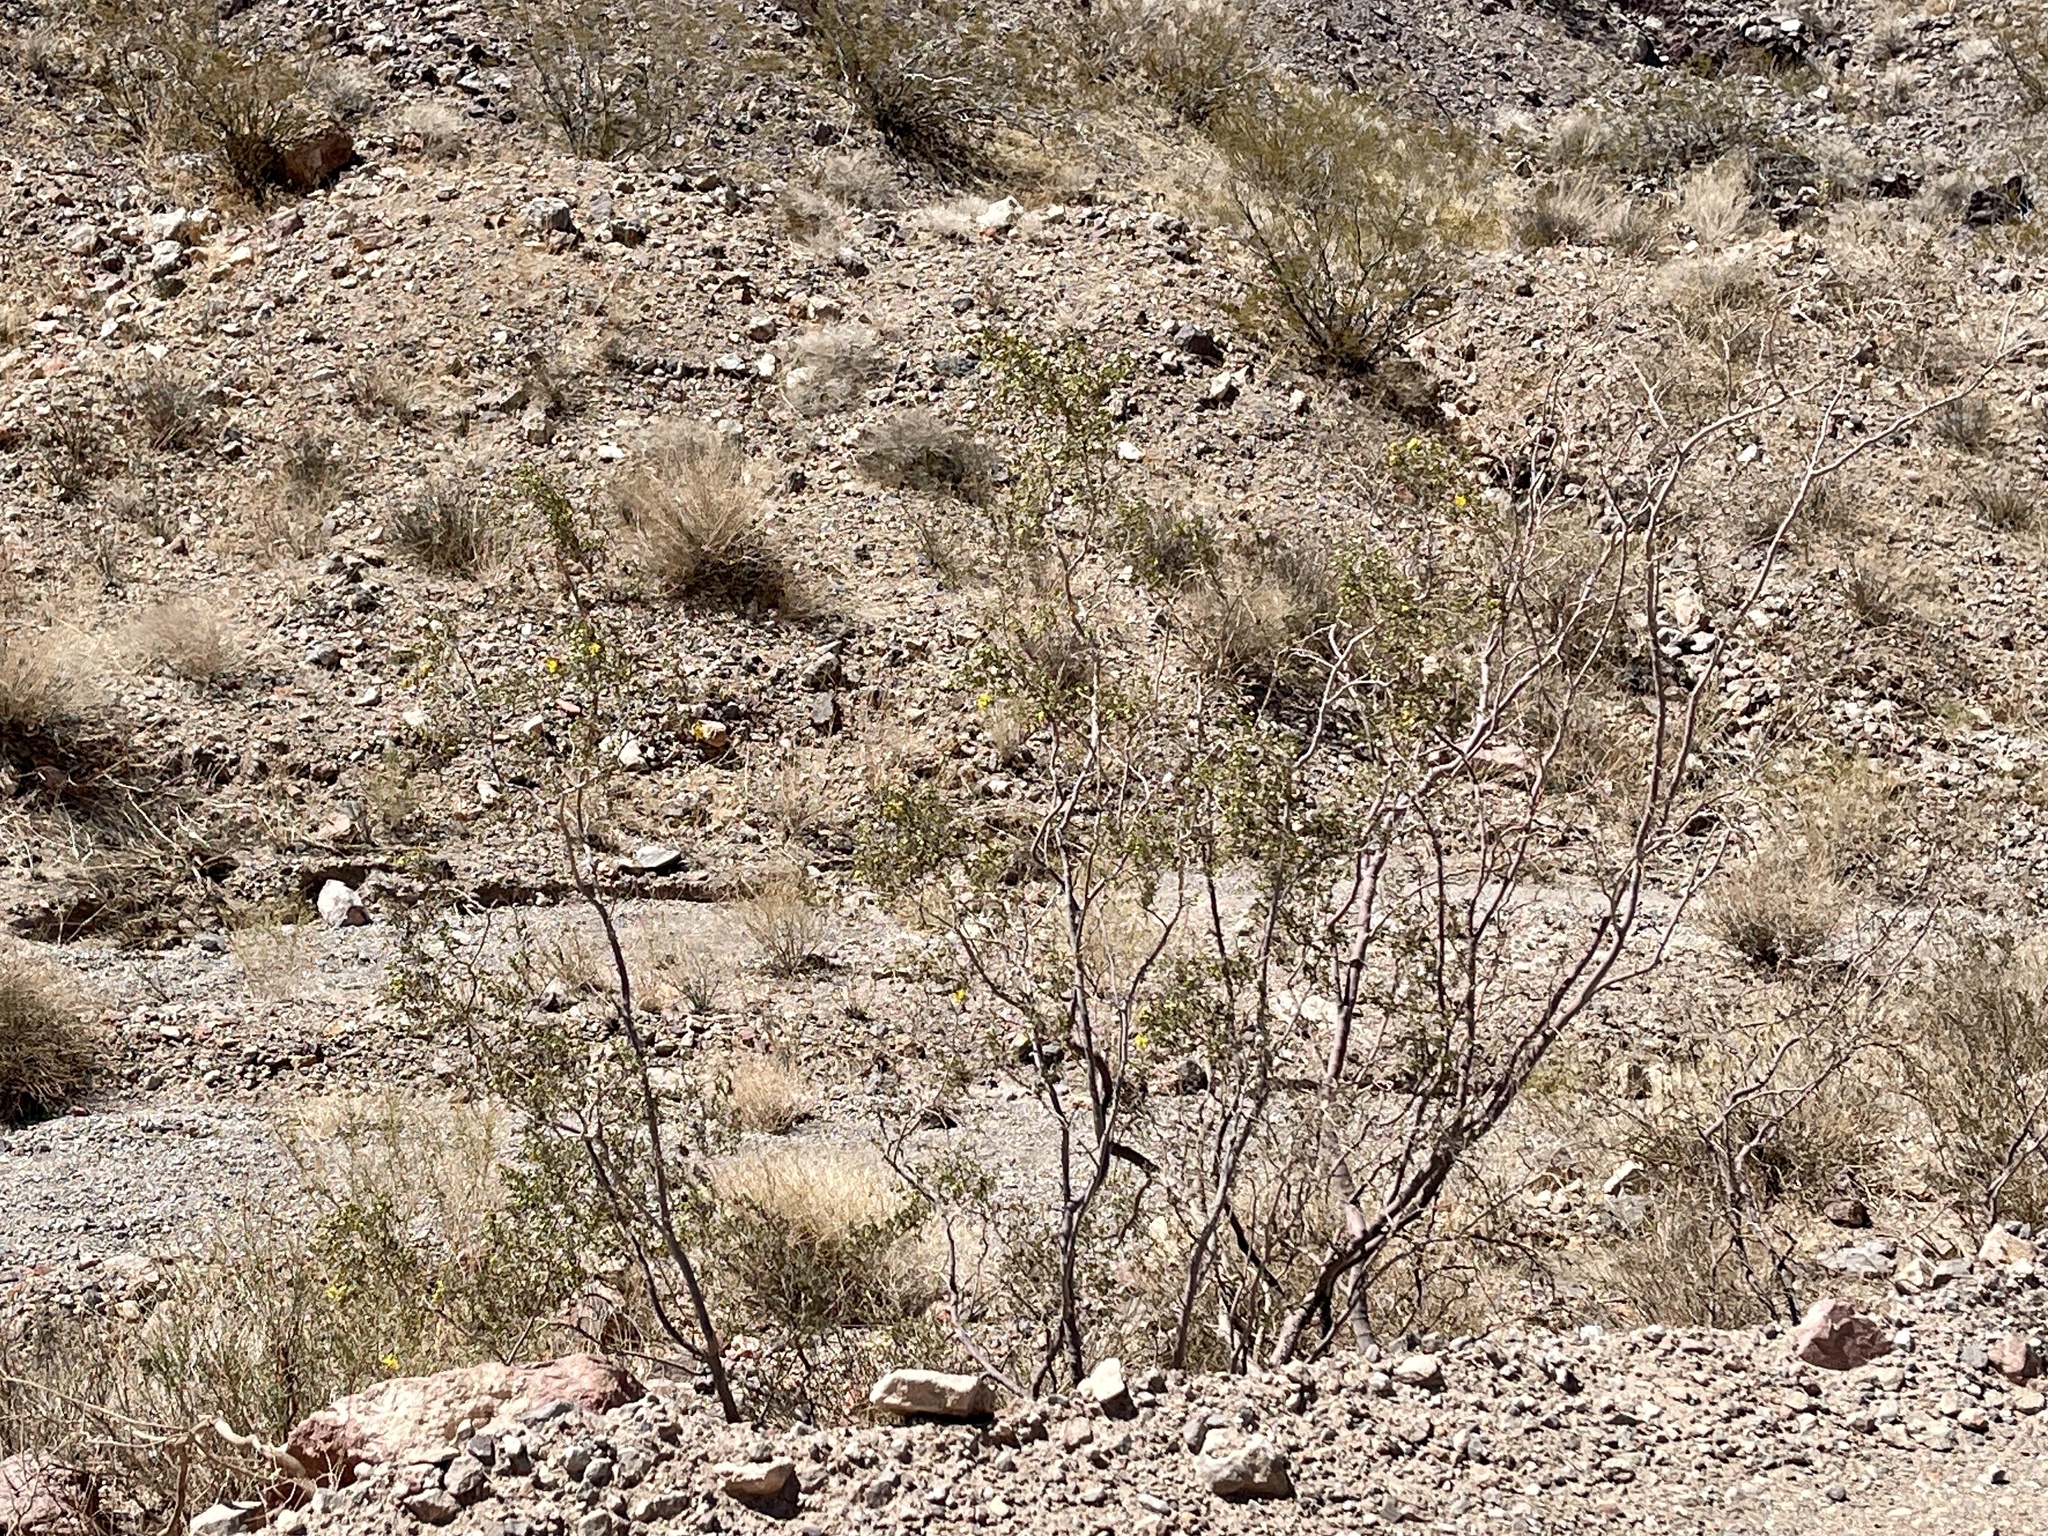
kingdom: Plantae
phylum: Tracheophyta
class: Magnoliopsida
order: Zygophyllales
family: Zygophyllaceae
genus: Larrea
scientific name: Larrea tridentata
